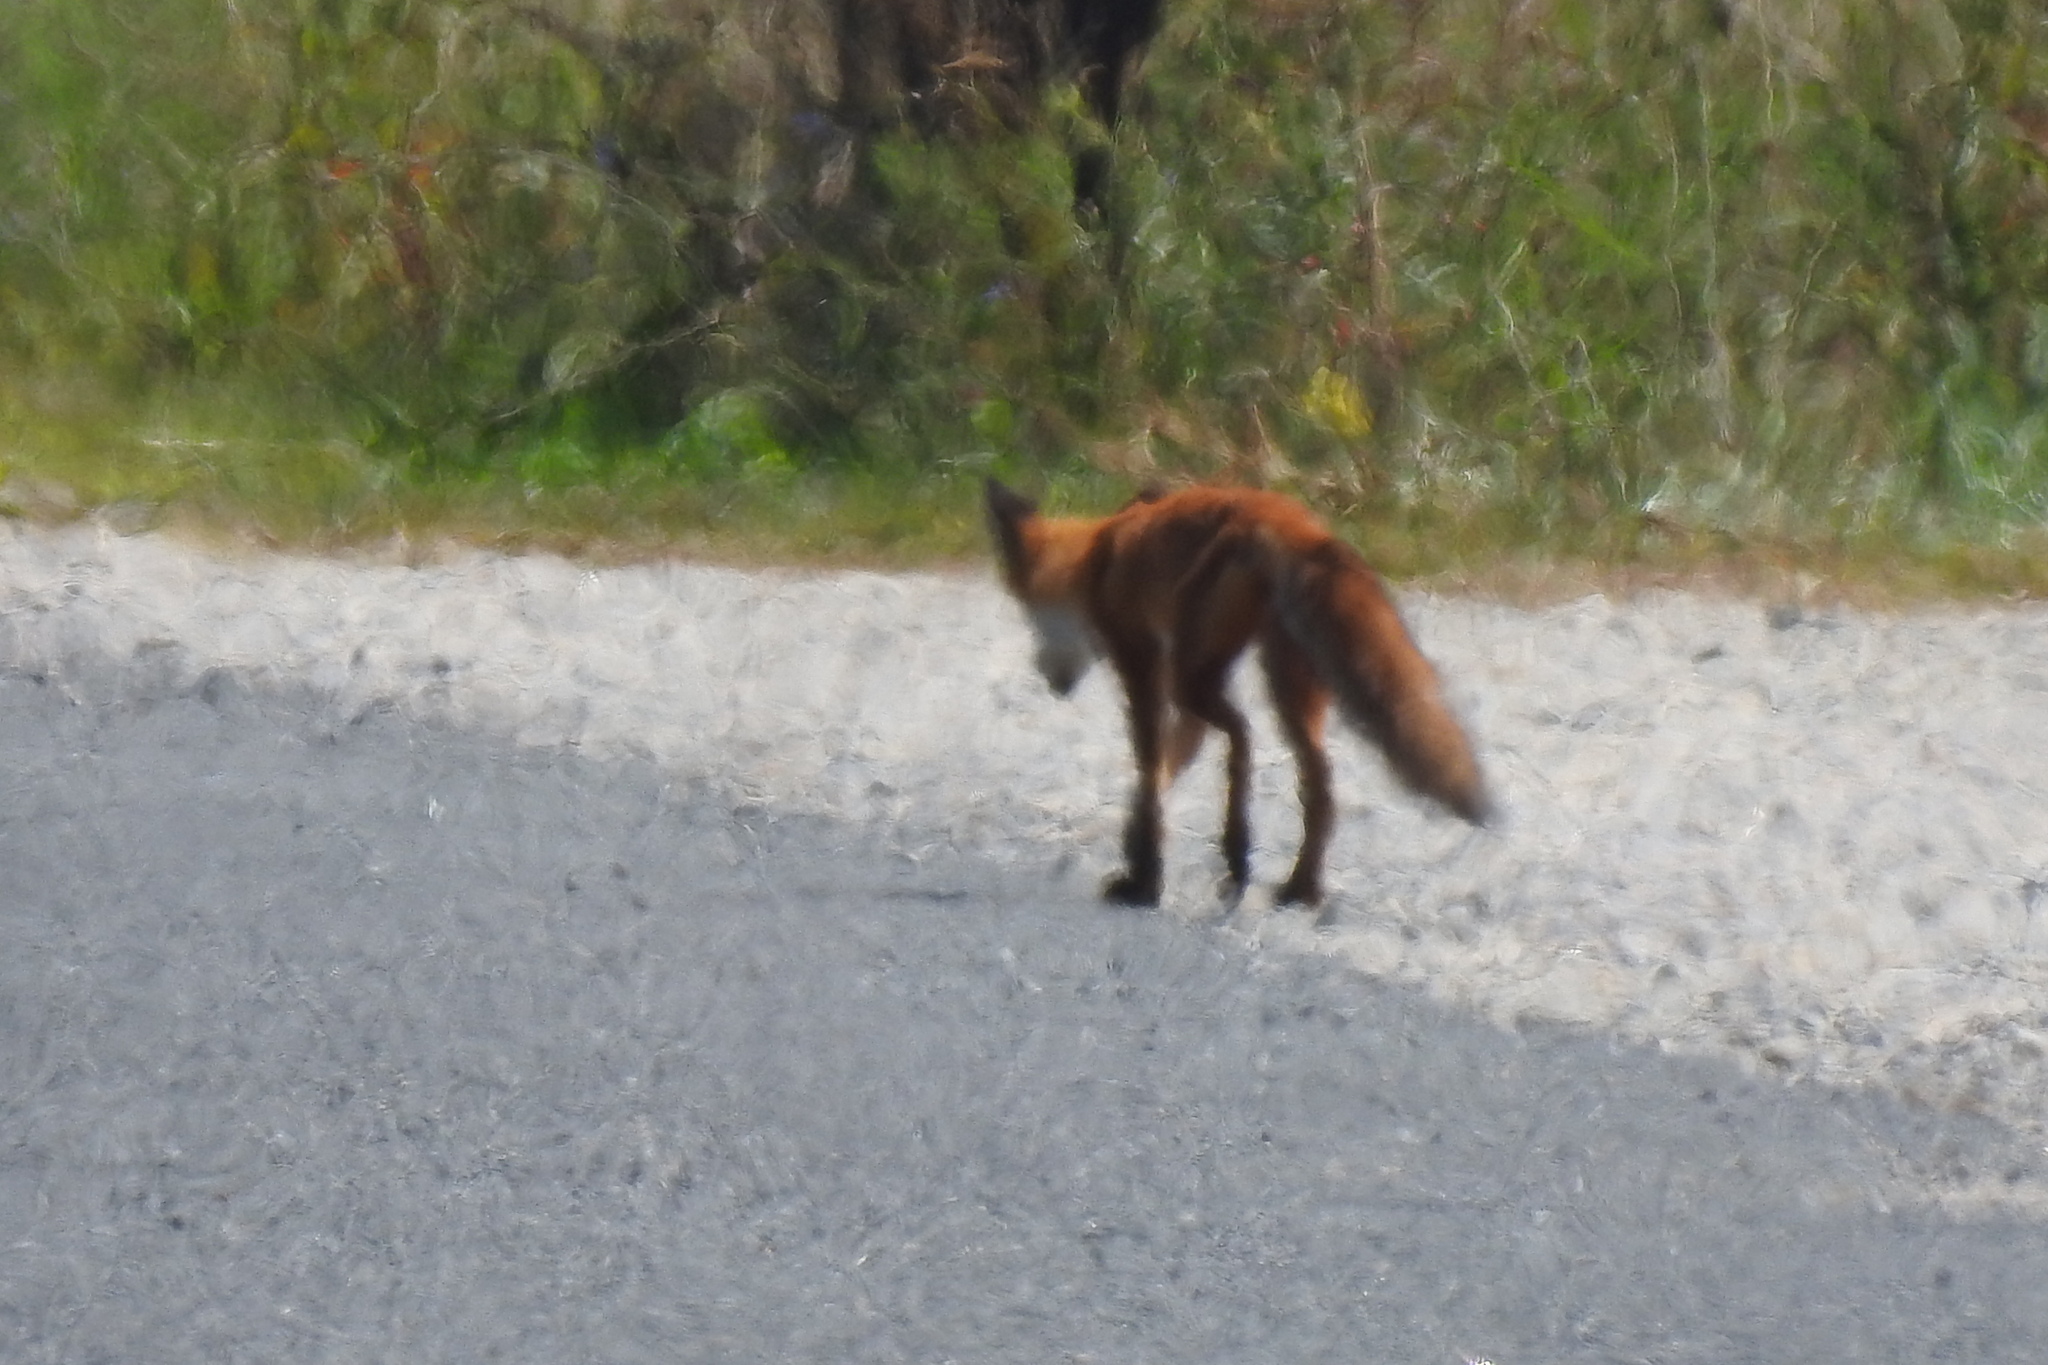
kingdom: Animalia
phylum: Chordata
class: Mammalia
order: Carnivora
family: Canidae
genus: Vulpes
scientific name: Vulpes vulpes
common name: Red fox
